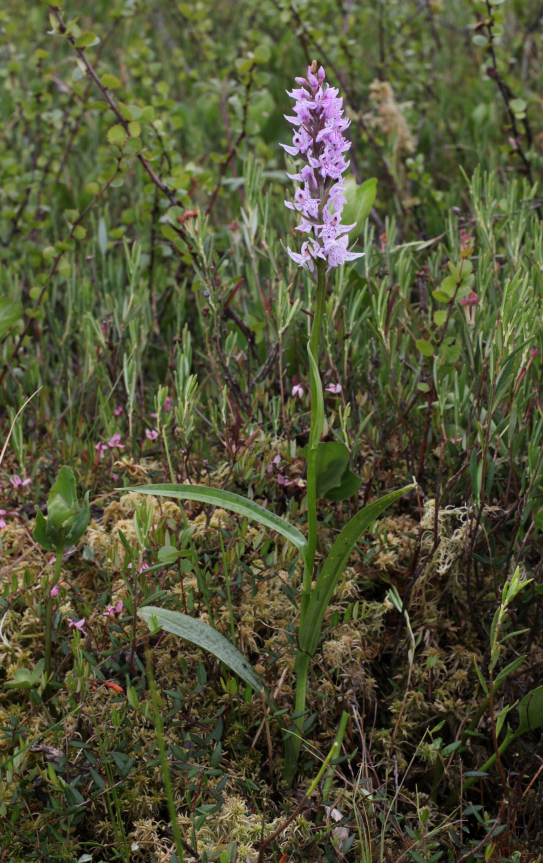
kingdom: Plantae
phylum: Tracheophyta
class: Liliopsida
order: Asparagales
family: Orchidaceae
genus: Dactylorhiza
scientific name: Dactylorhiza maculata
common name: Heath spotted-orchid
